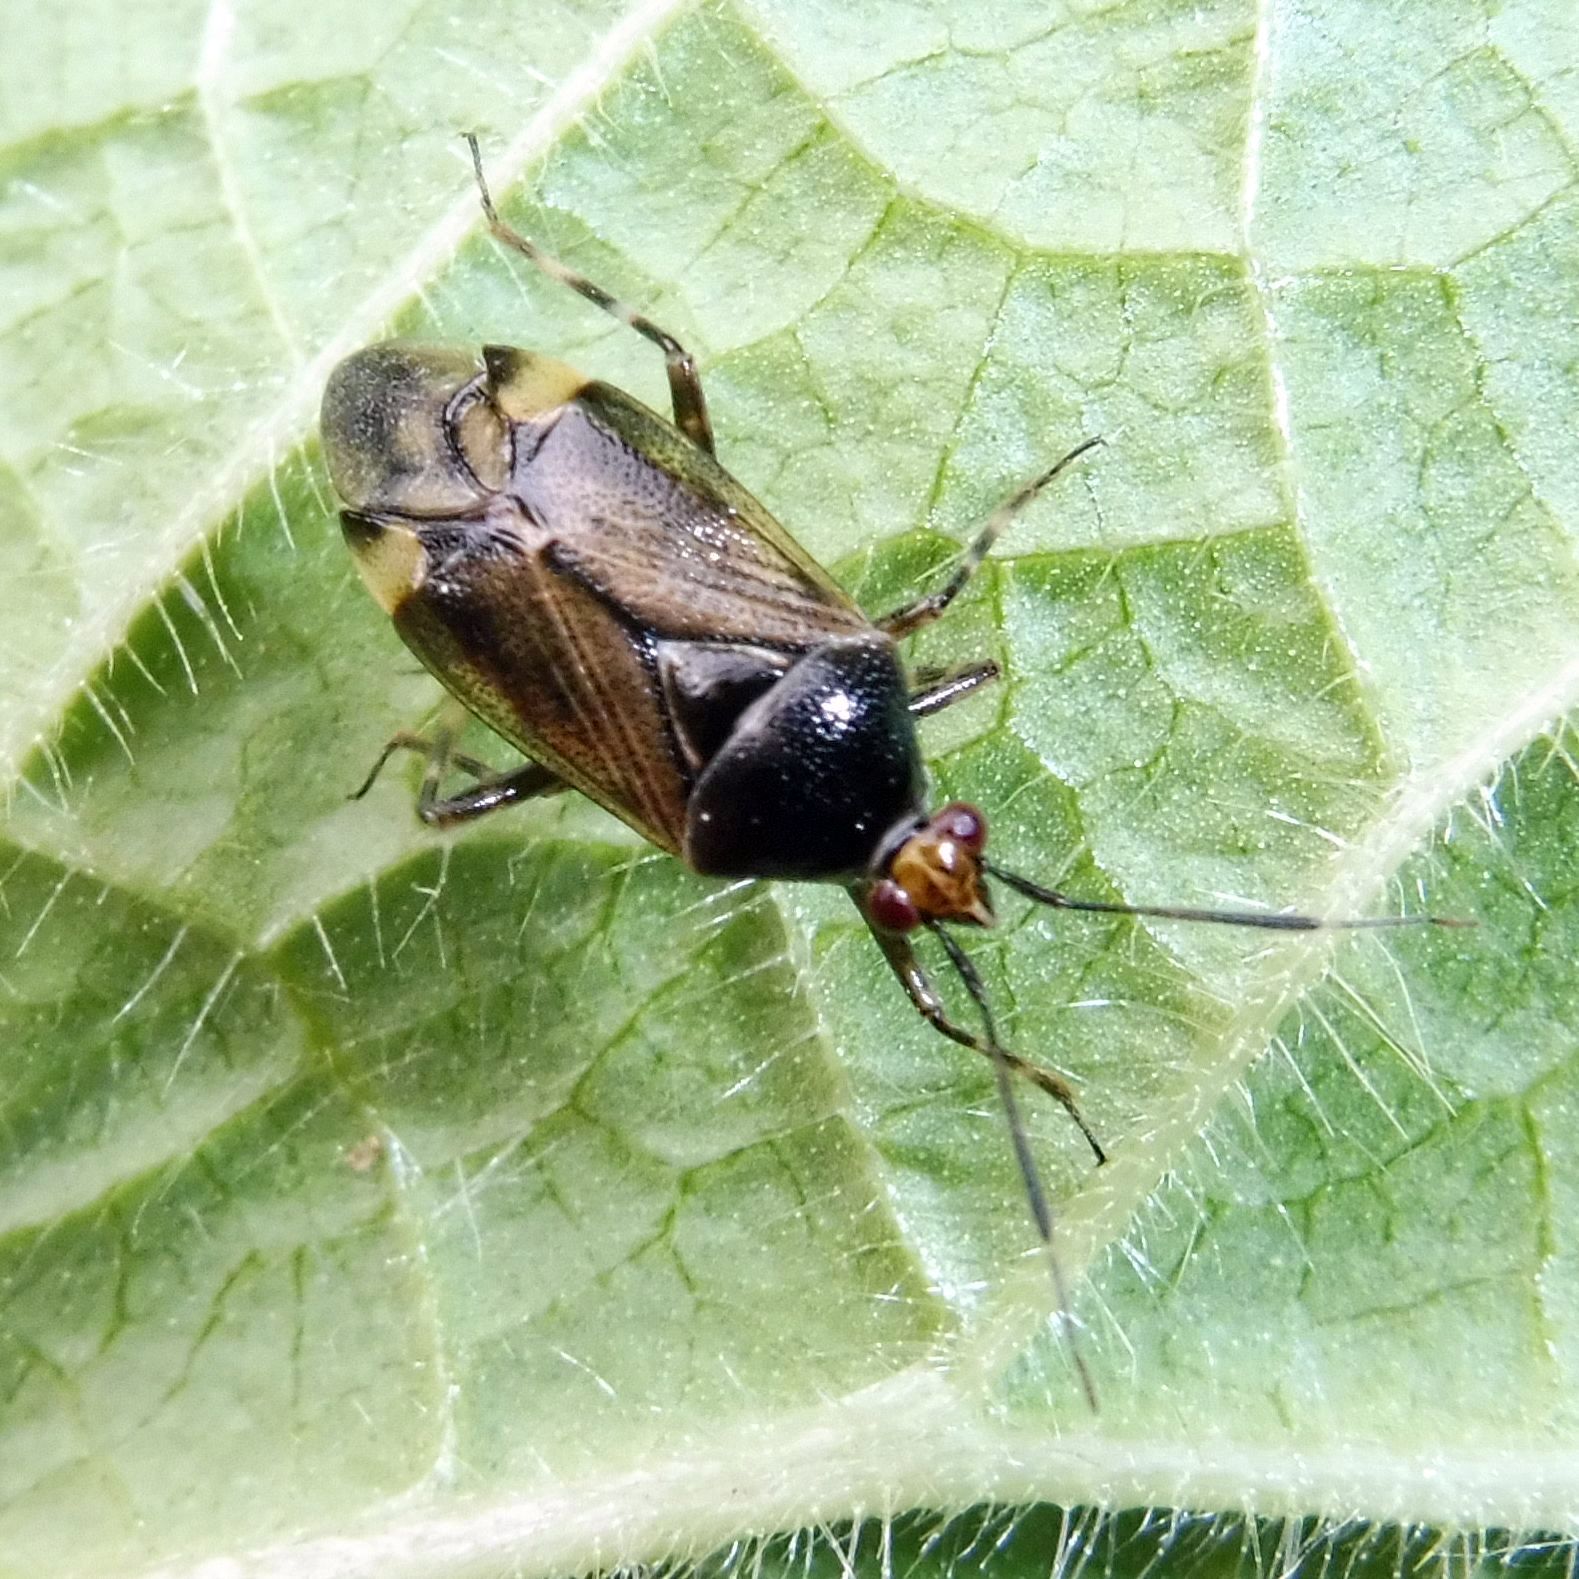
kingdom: Animalia
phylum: Arthropoda
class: Insecta
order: Hemiptera
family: Miridae
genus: Deraeocoris
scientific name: Deraeocoris flavilinea
